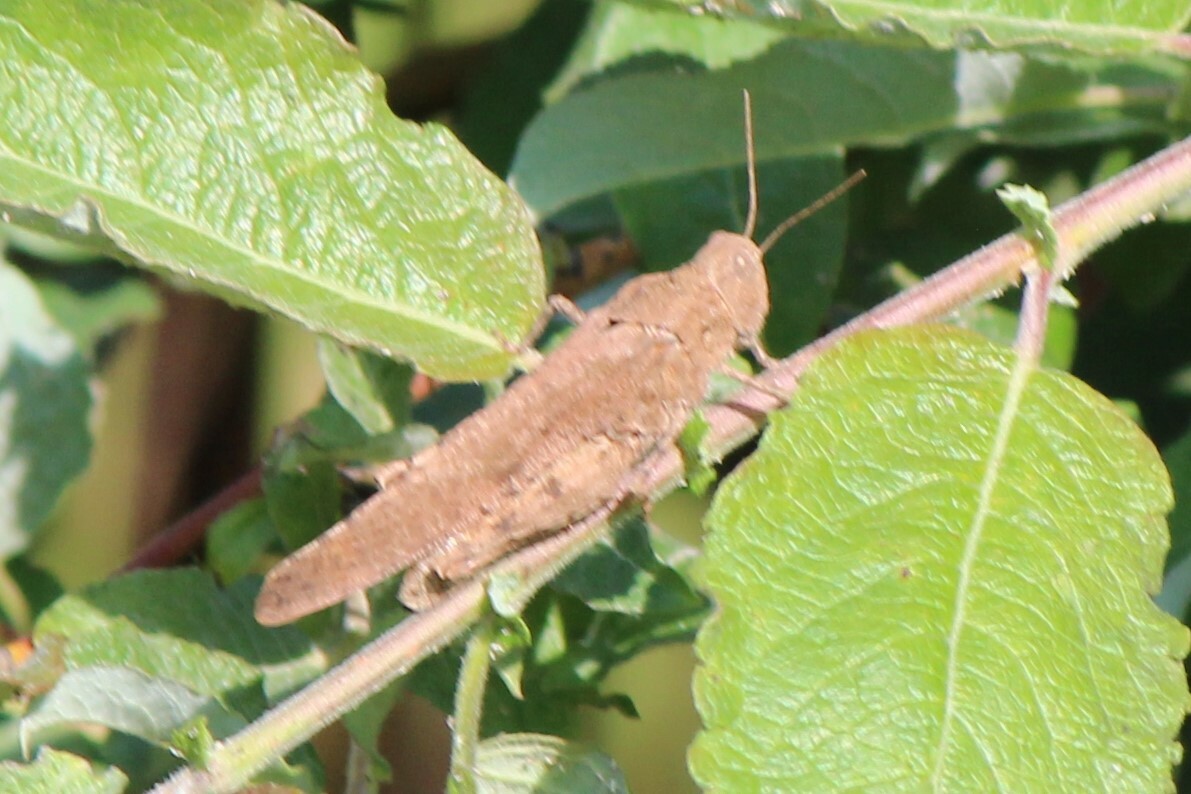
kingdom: Animalia
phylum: Arthropoda
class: Insecta
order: Orthoptera
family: Acrididae
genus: Dissosteira
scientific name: Dissosteira carolina
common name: Carolina grasshopper
